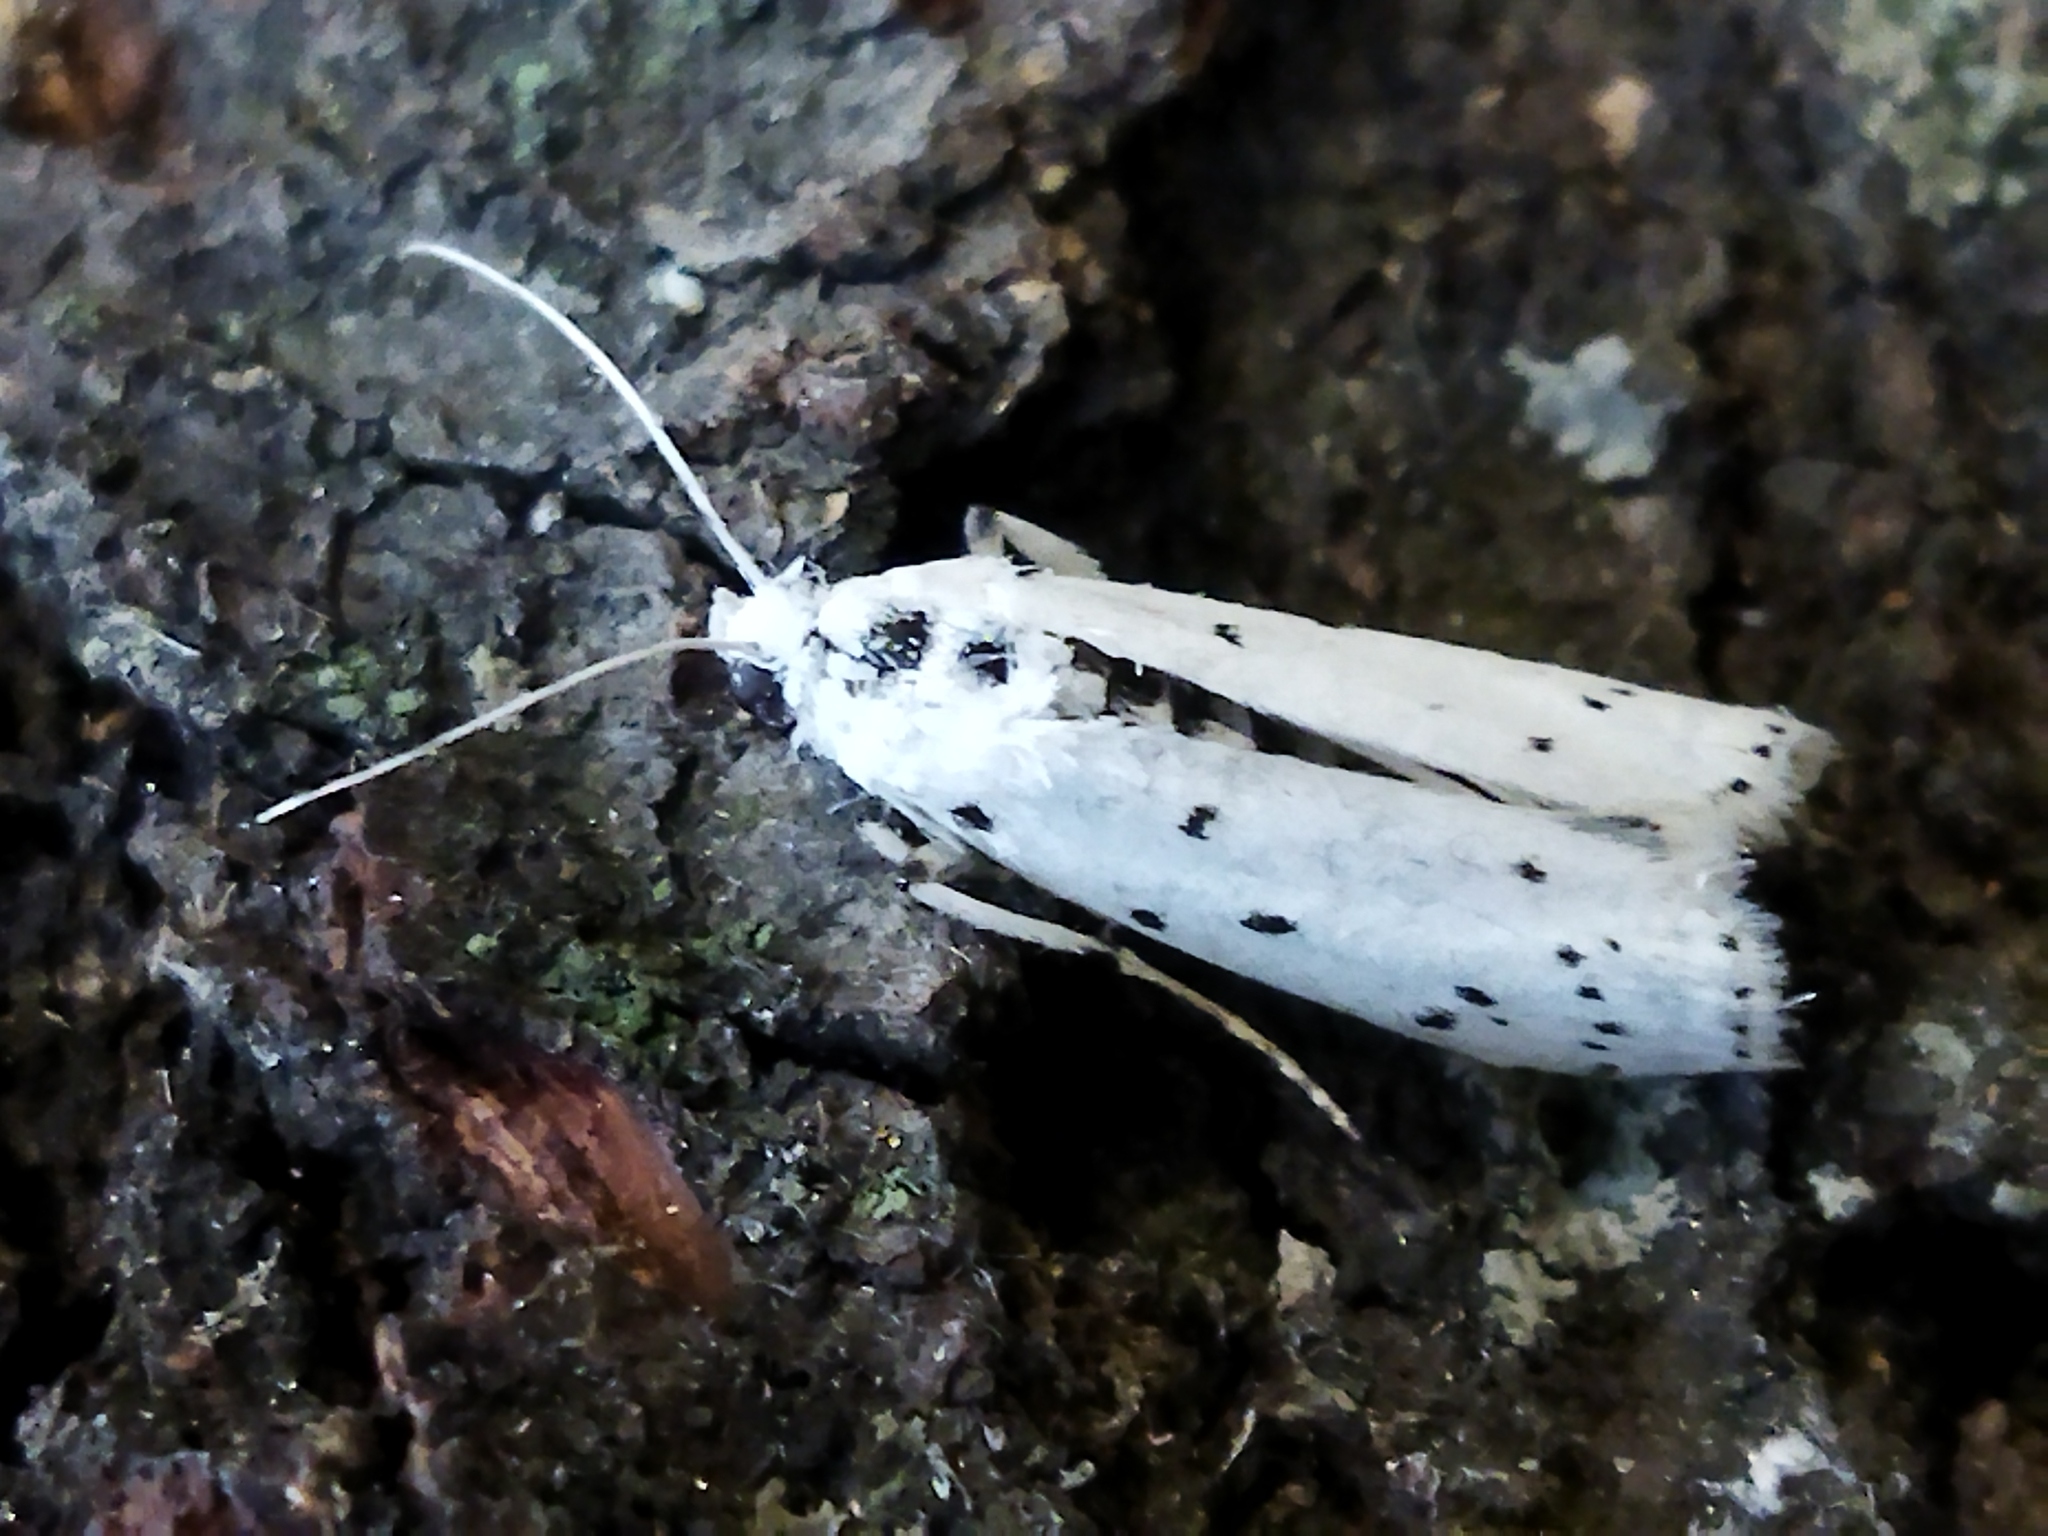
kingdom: Animalia
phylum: Arthropoda
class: Insecta
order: Lepidoptera
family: Pyralidae
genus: Myelois
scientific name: Myelois circumvoluta
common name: Thistle ermine
